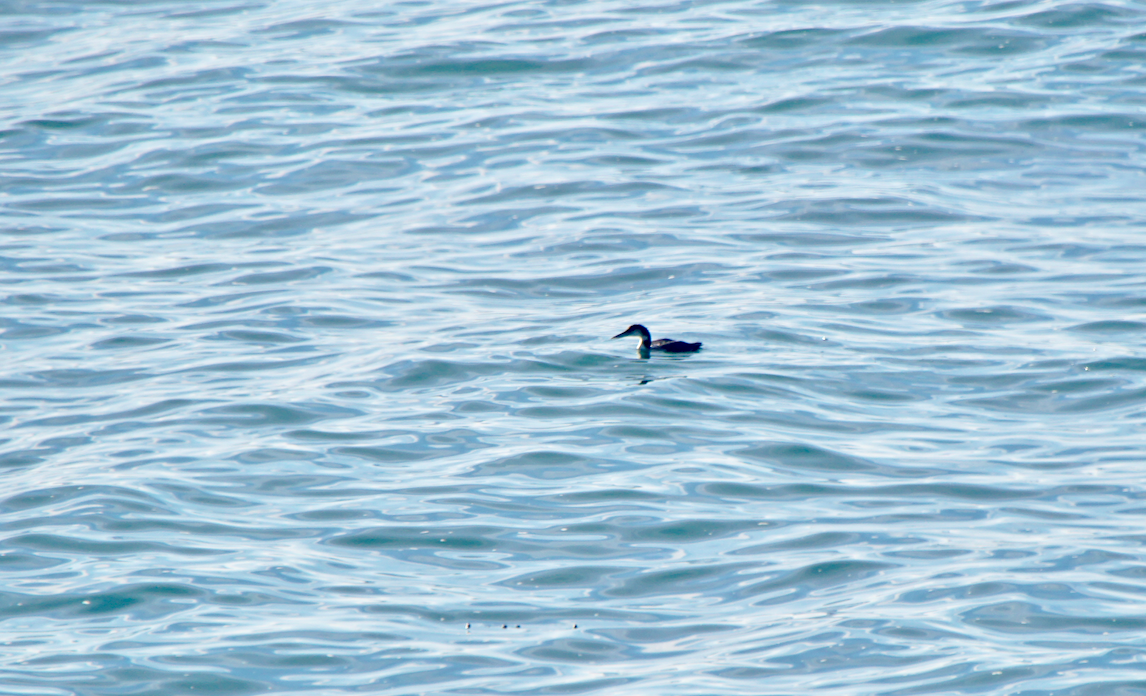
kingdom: Animalia
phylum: Chordata
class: Aves
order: Gaviiformes
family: Gaviidae
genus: Gavia
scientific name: Gavia immer
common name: Common loon
